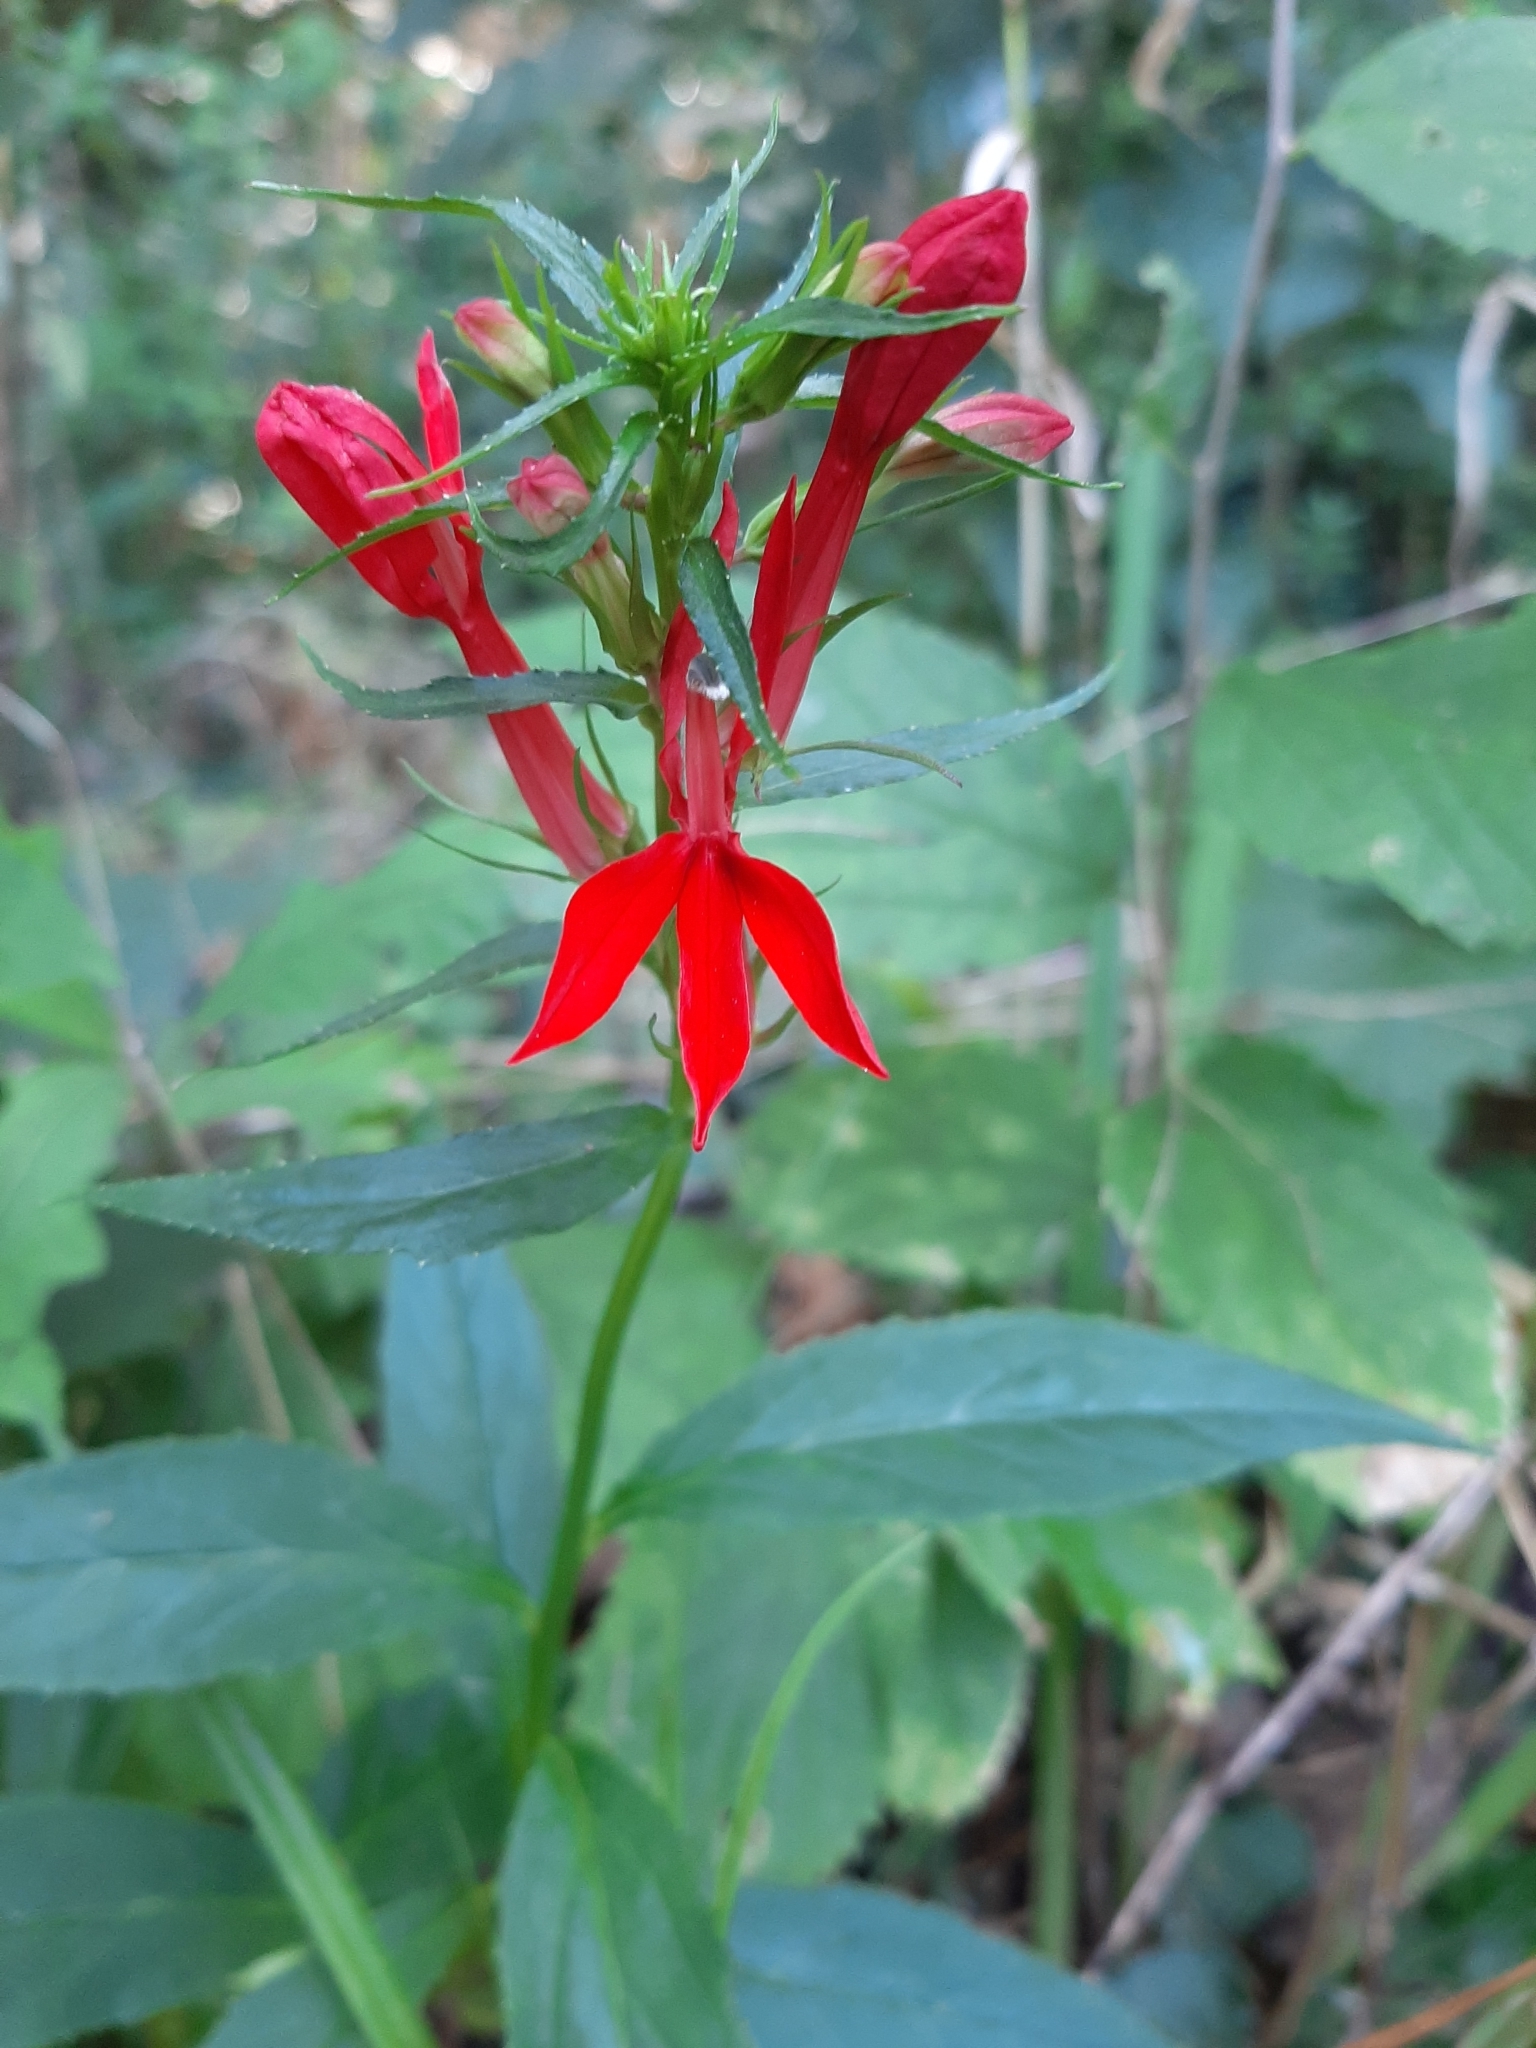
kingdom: Plantae
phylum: Tracheophyta
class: Magnoliopsida
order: Asterales
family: Campanulaceae
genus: Lobelia
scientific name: Lobelia cardinalis
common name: Cardinal flower
